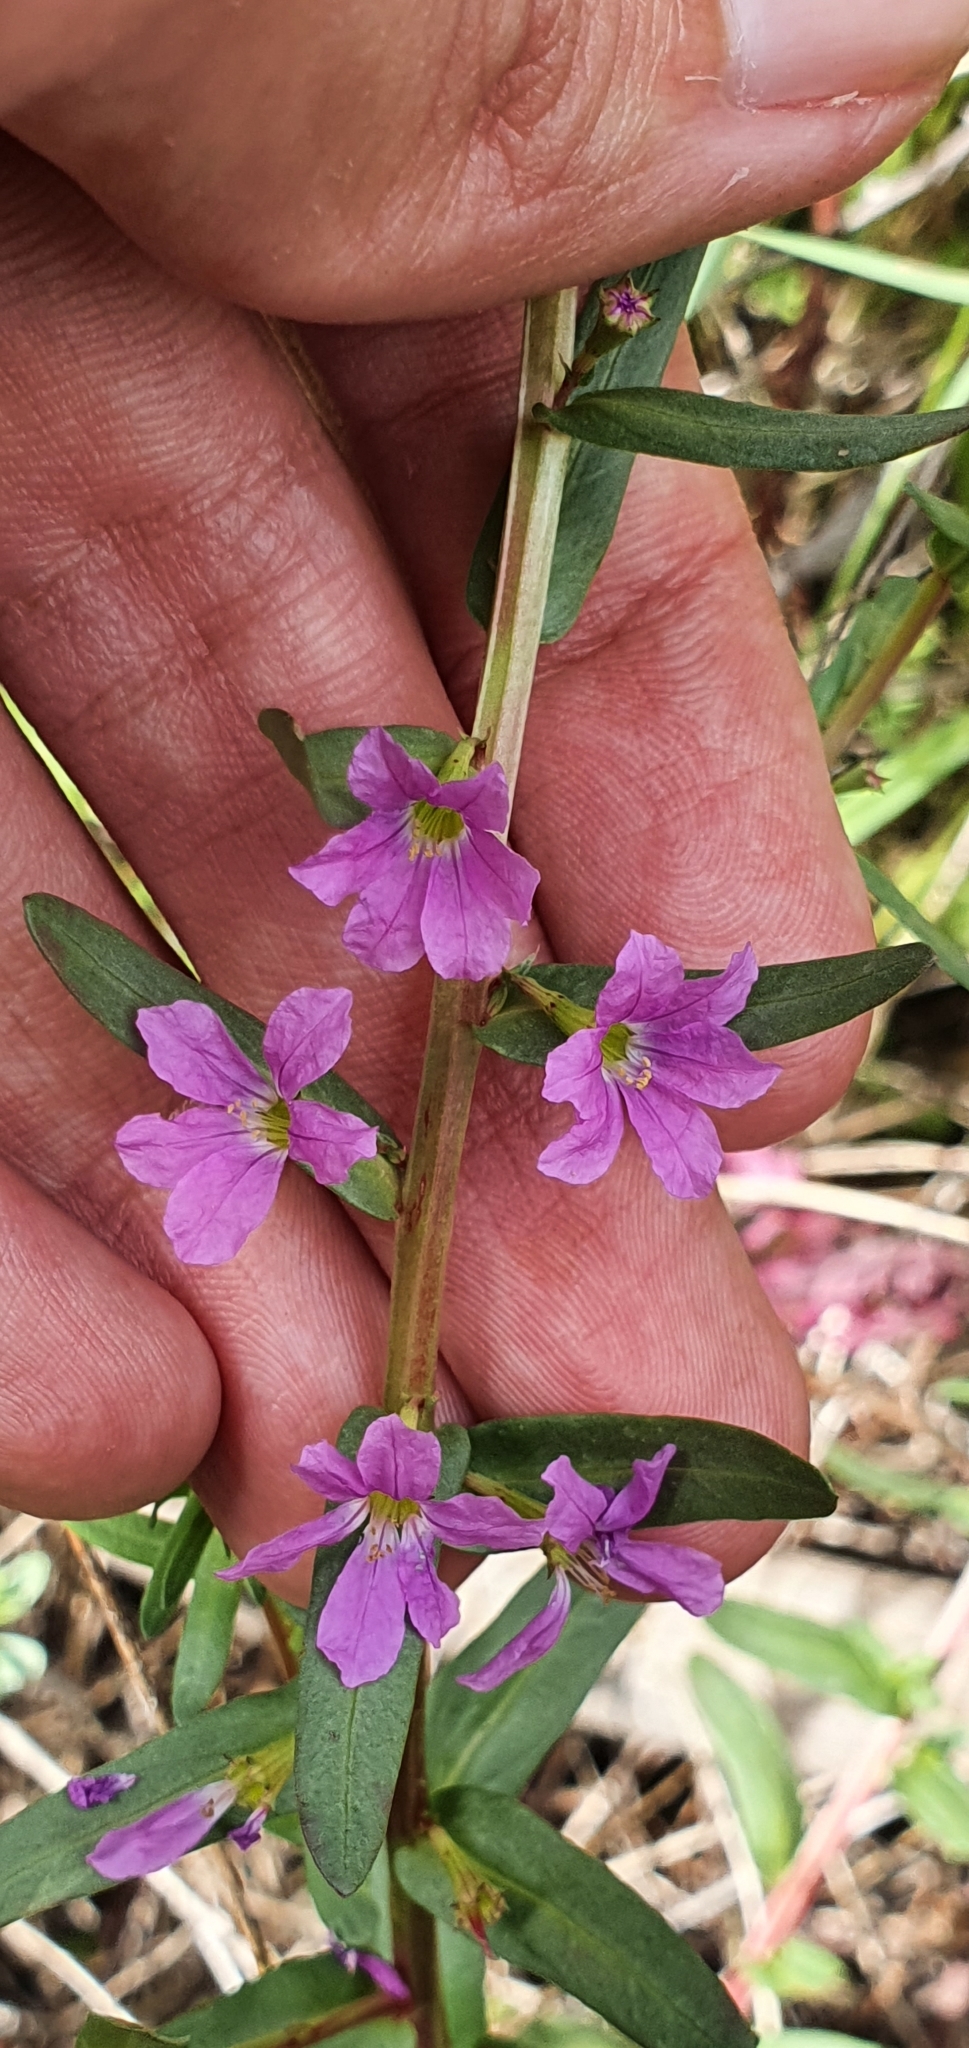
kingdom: Plantae
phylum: Tracheophyta
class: Magnoliopsida
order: Myrtales
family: Lythraceae
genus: Lythrum
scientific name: Lythrum junceum
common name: False grass-poly
